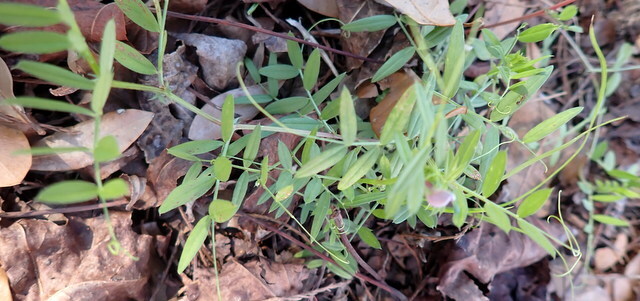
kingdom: Plantae
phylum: Tracheophyta
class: Magnoliopsida
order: Fabales
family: Fabaceae
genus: Vicia
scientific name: Vicia sativa
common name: Garden vetch
